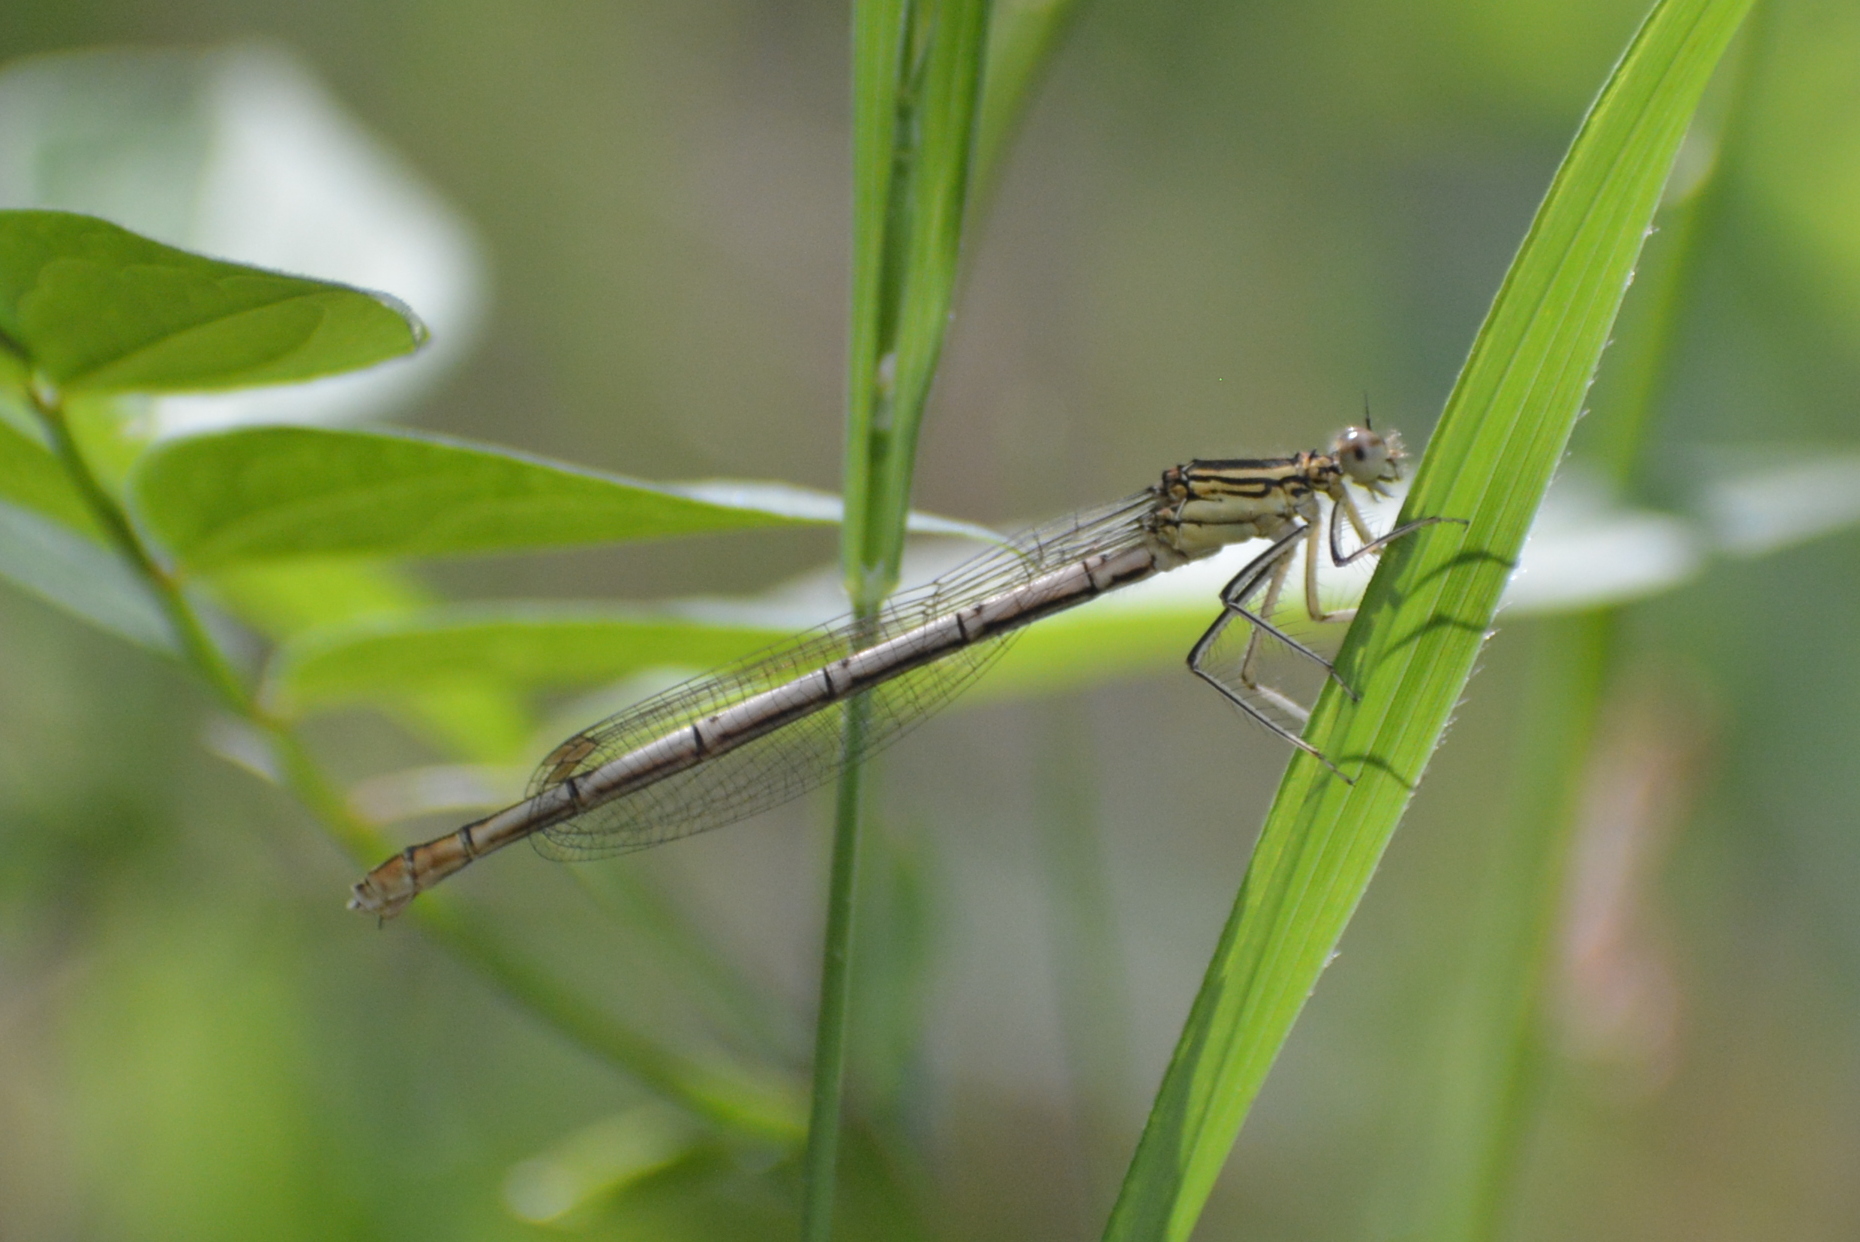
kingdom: Animalia
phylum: Arthropoda
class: Insecta
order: Odonata
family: Platycnemididae
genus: Platycnemis
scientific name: Platycnemis pennipes
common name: White-legged damselfly
